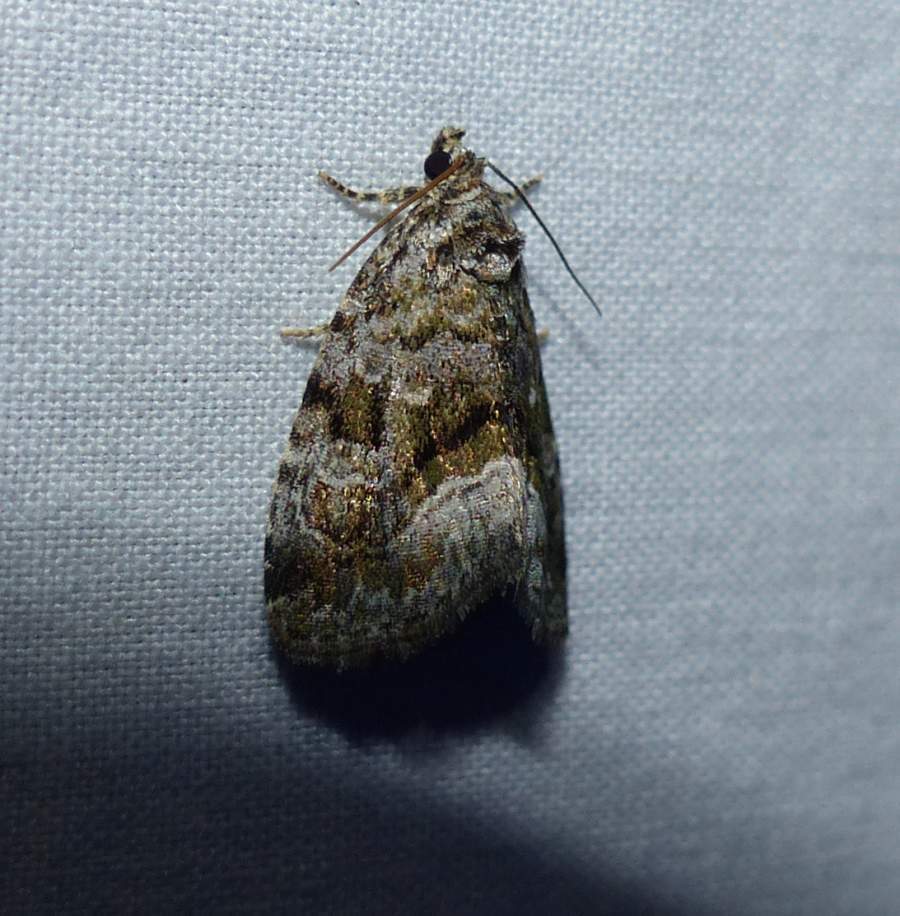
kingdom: Animalia
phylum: Arthropoda
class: Insecta
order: Lepidoptera
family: Noctuidae
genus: Protodeltote
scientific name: Protodeltote muscosula
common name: Large mossy glyph
